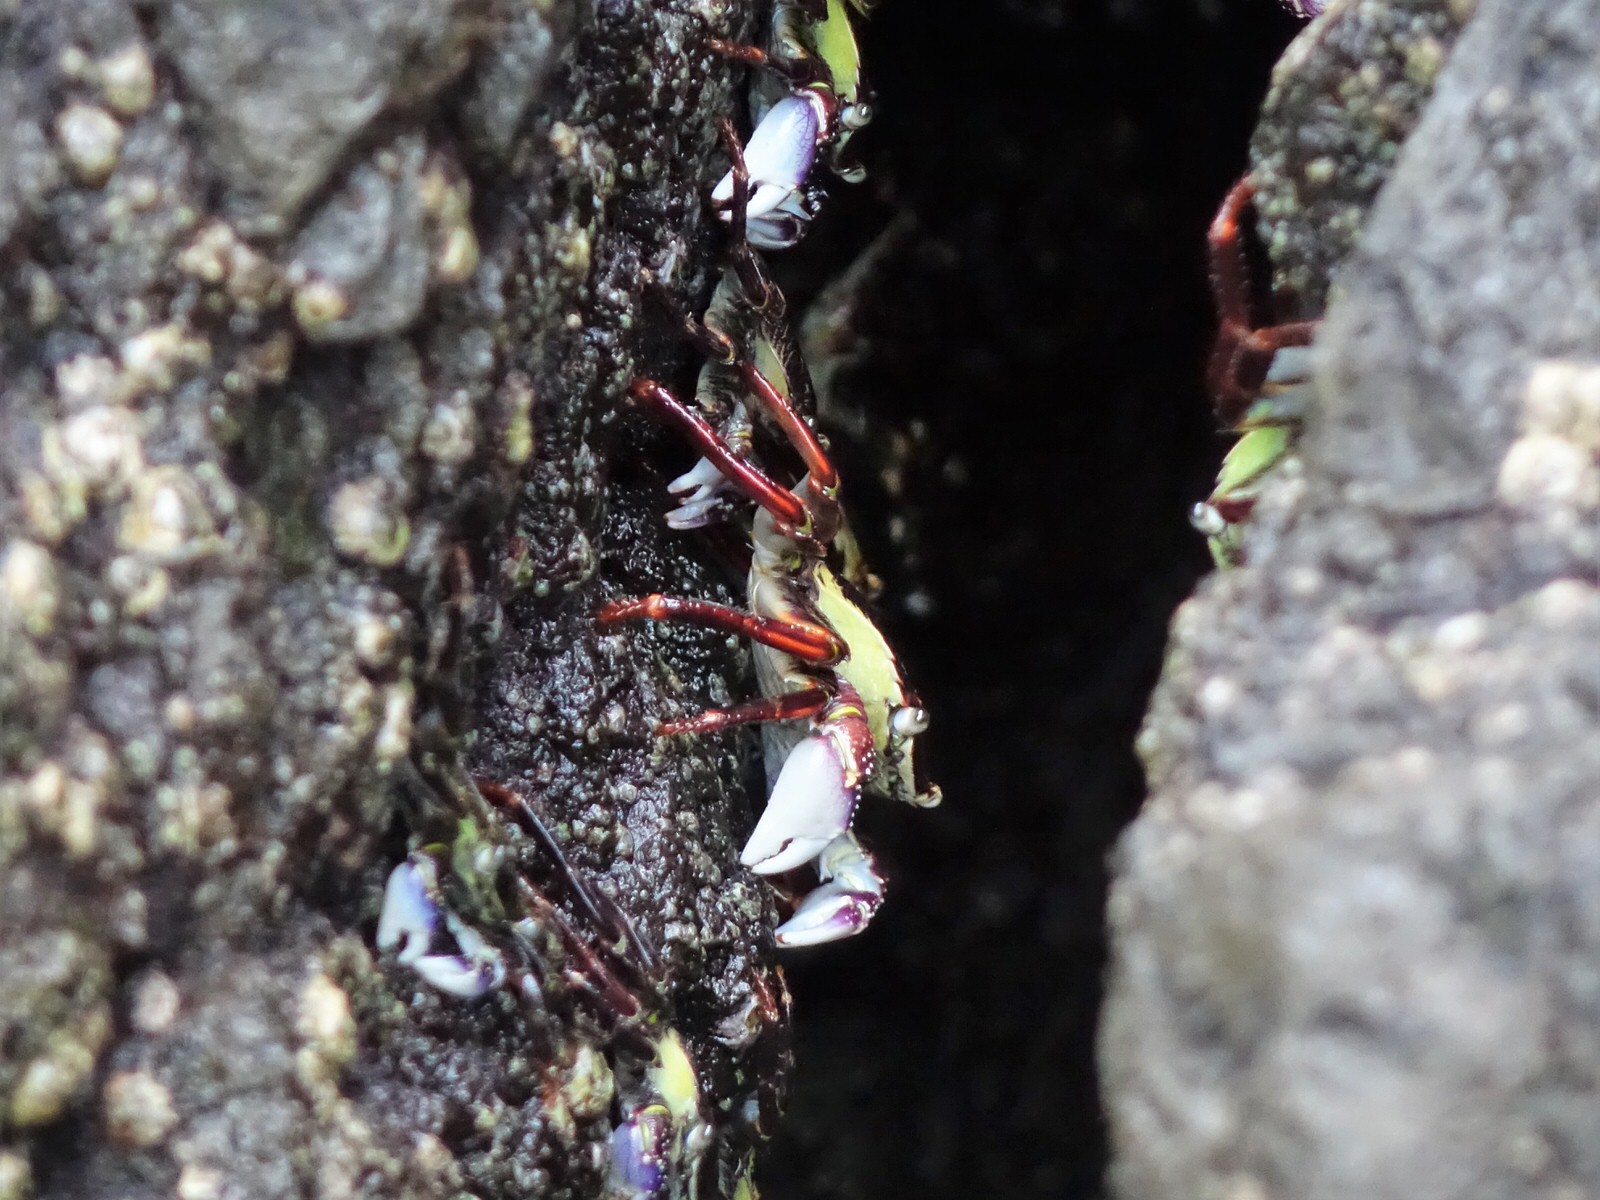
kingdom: Animalia
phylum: Arthropoda
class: Malacostraca
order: Decapoda
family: Grapsidae
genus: Leptograpsus
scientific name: Leptograpsus variegatus
